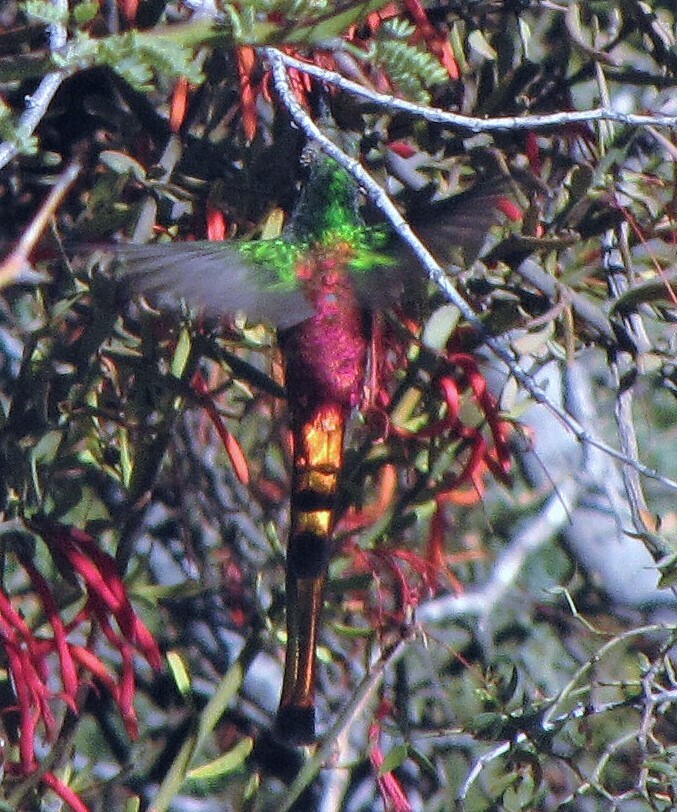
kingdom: Animalia
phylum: Chordata
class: Aves
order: Apodiformes
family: Trochilidae
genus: Sappho
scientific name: Sappho sparganurus
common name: Red-tailed comet
